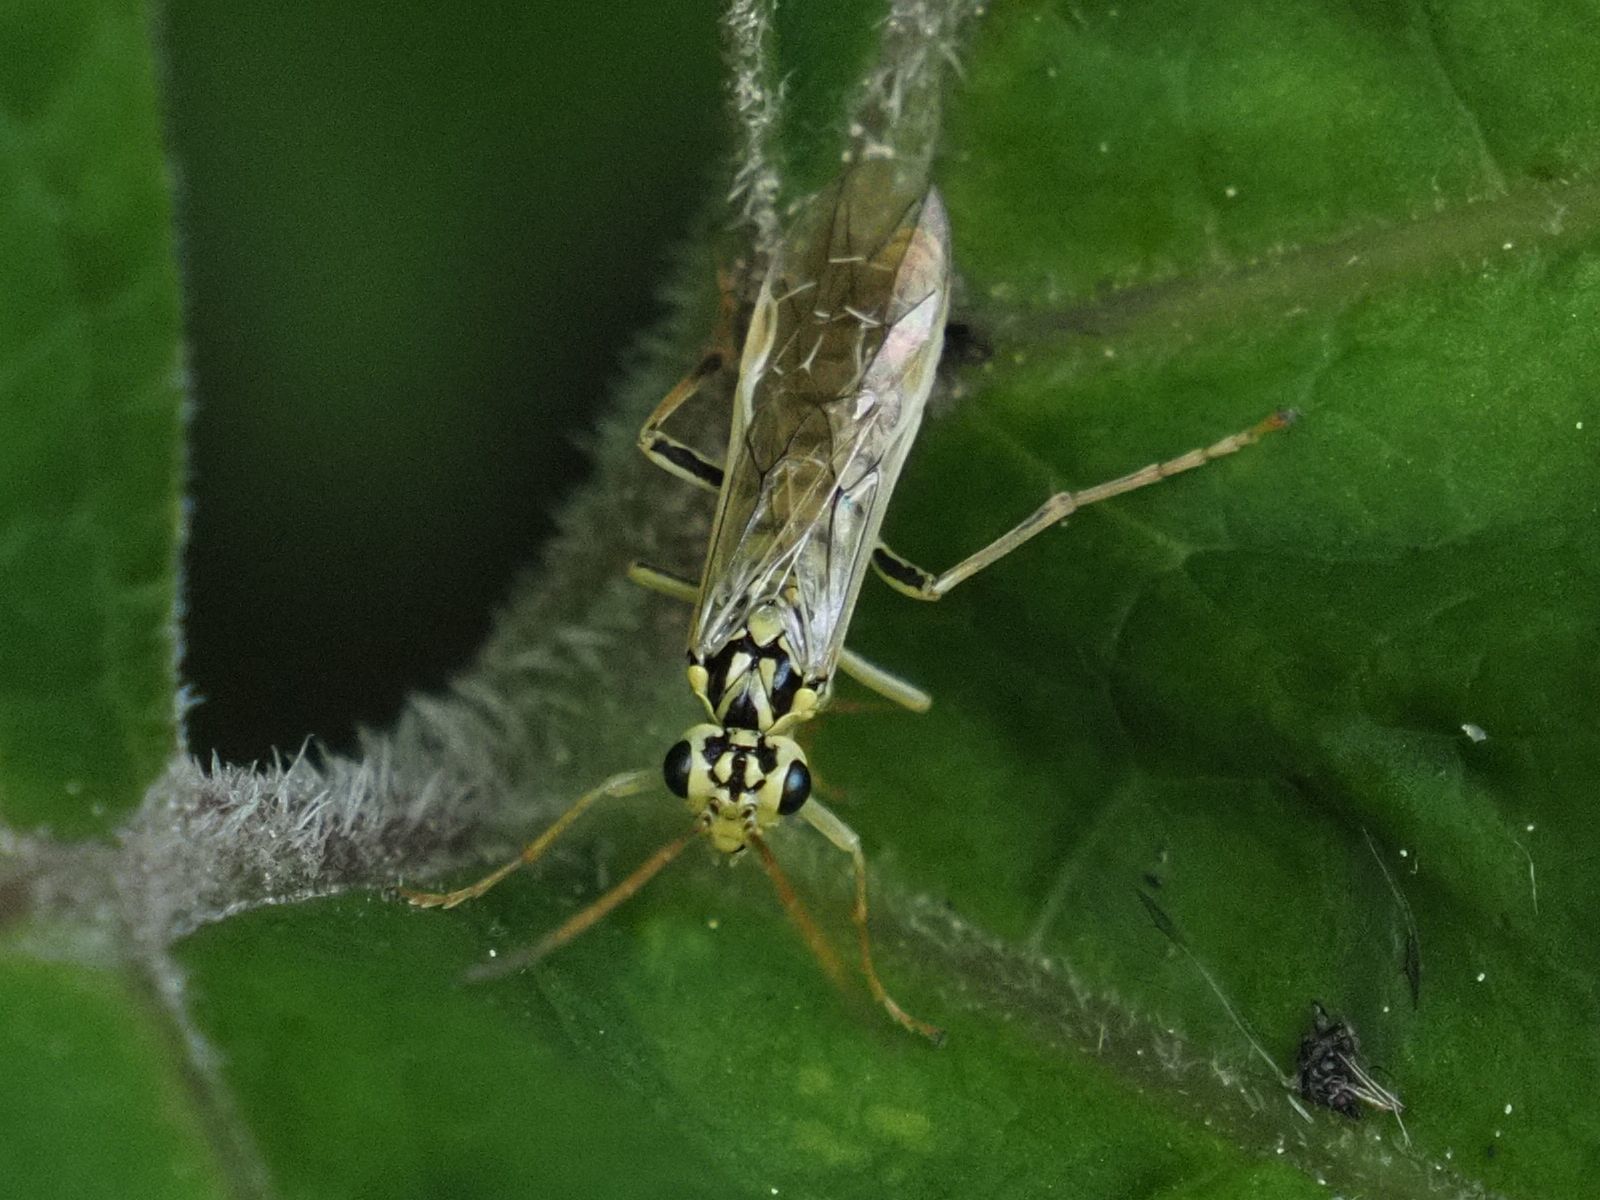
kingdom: Animalia
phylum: Arthropoda
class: Insecta
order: Hymenoptera
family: Tenthredinidae
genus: Aglaostigma
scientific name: Aglaostigma lichtwardti
